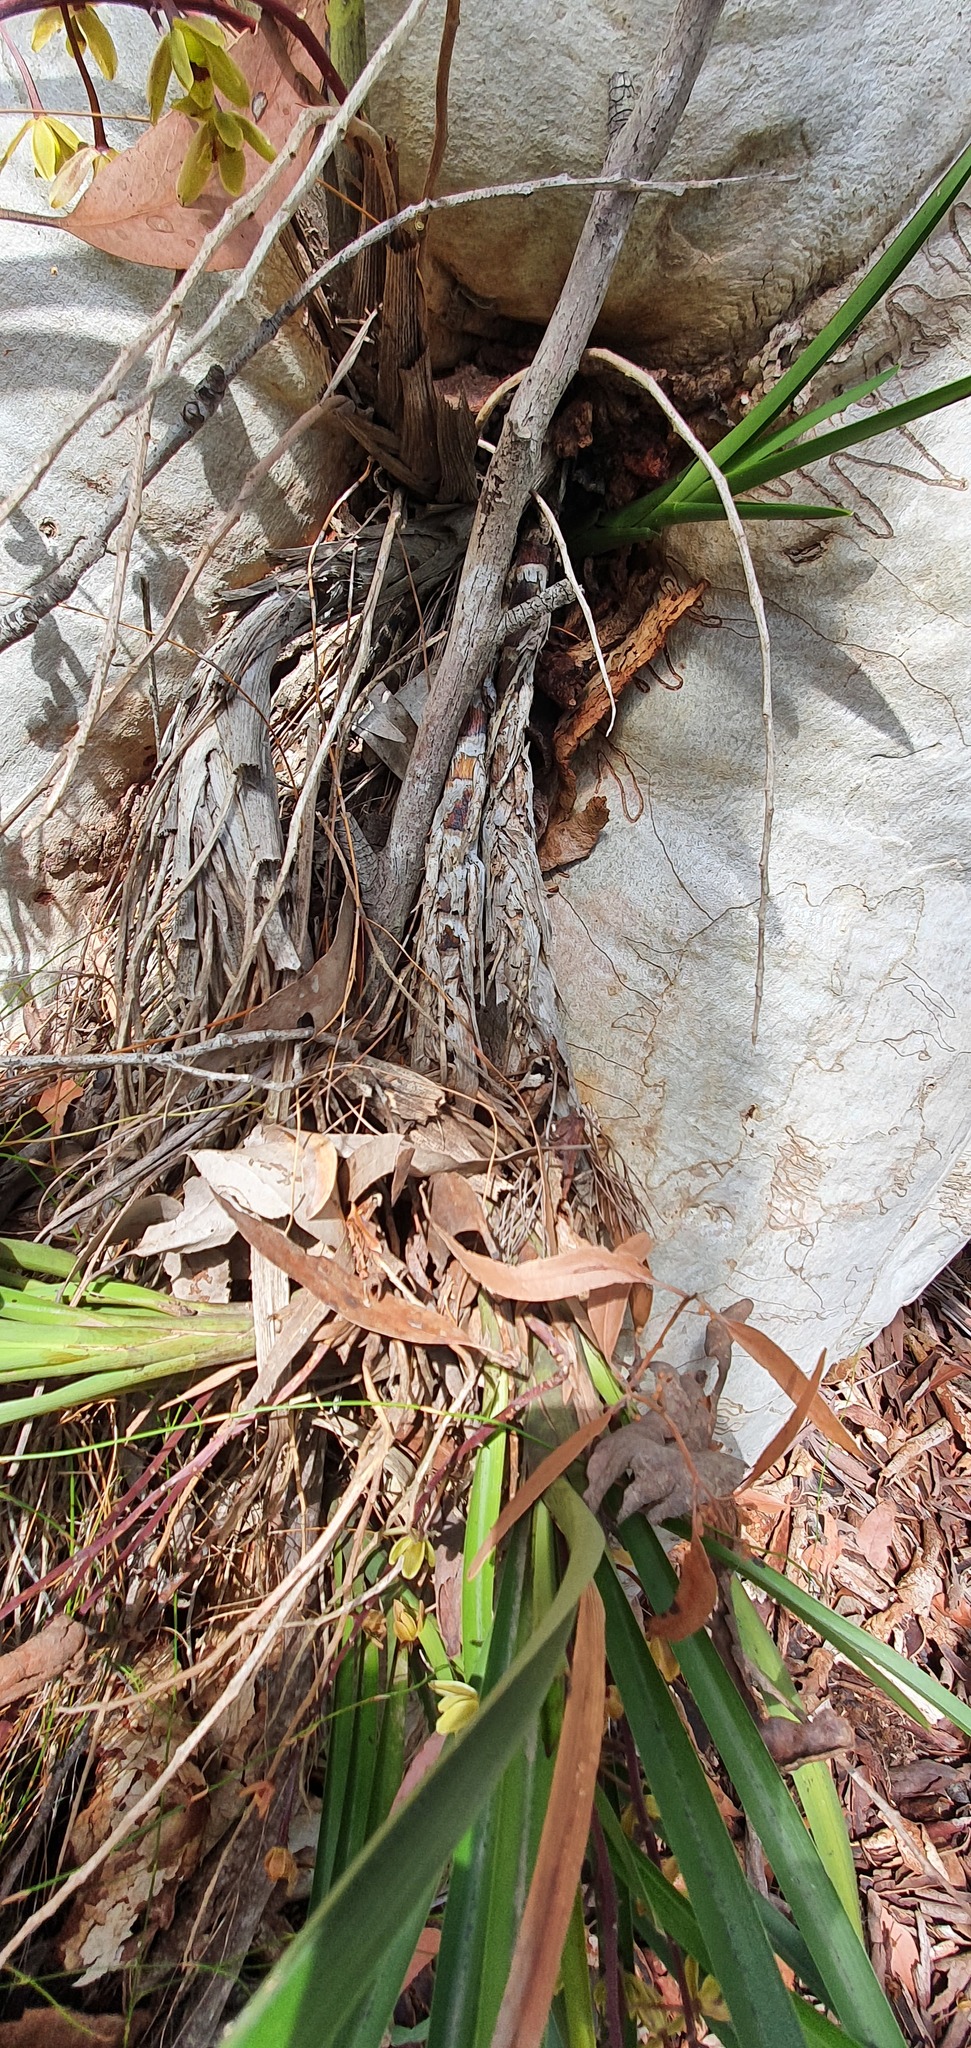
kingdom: Plantae
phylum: Tracheophyta
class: Liliopsida
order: Asparagales
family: Orchidaceae
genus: Cymbidium
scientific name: Cymbidium suave
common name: Snake orchid
